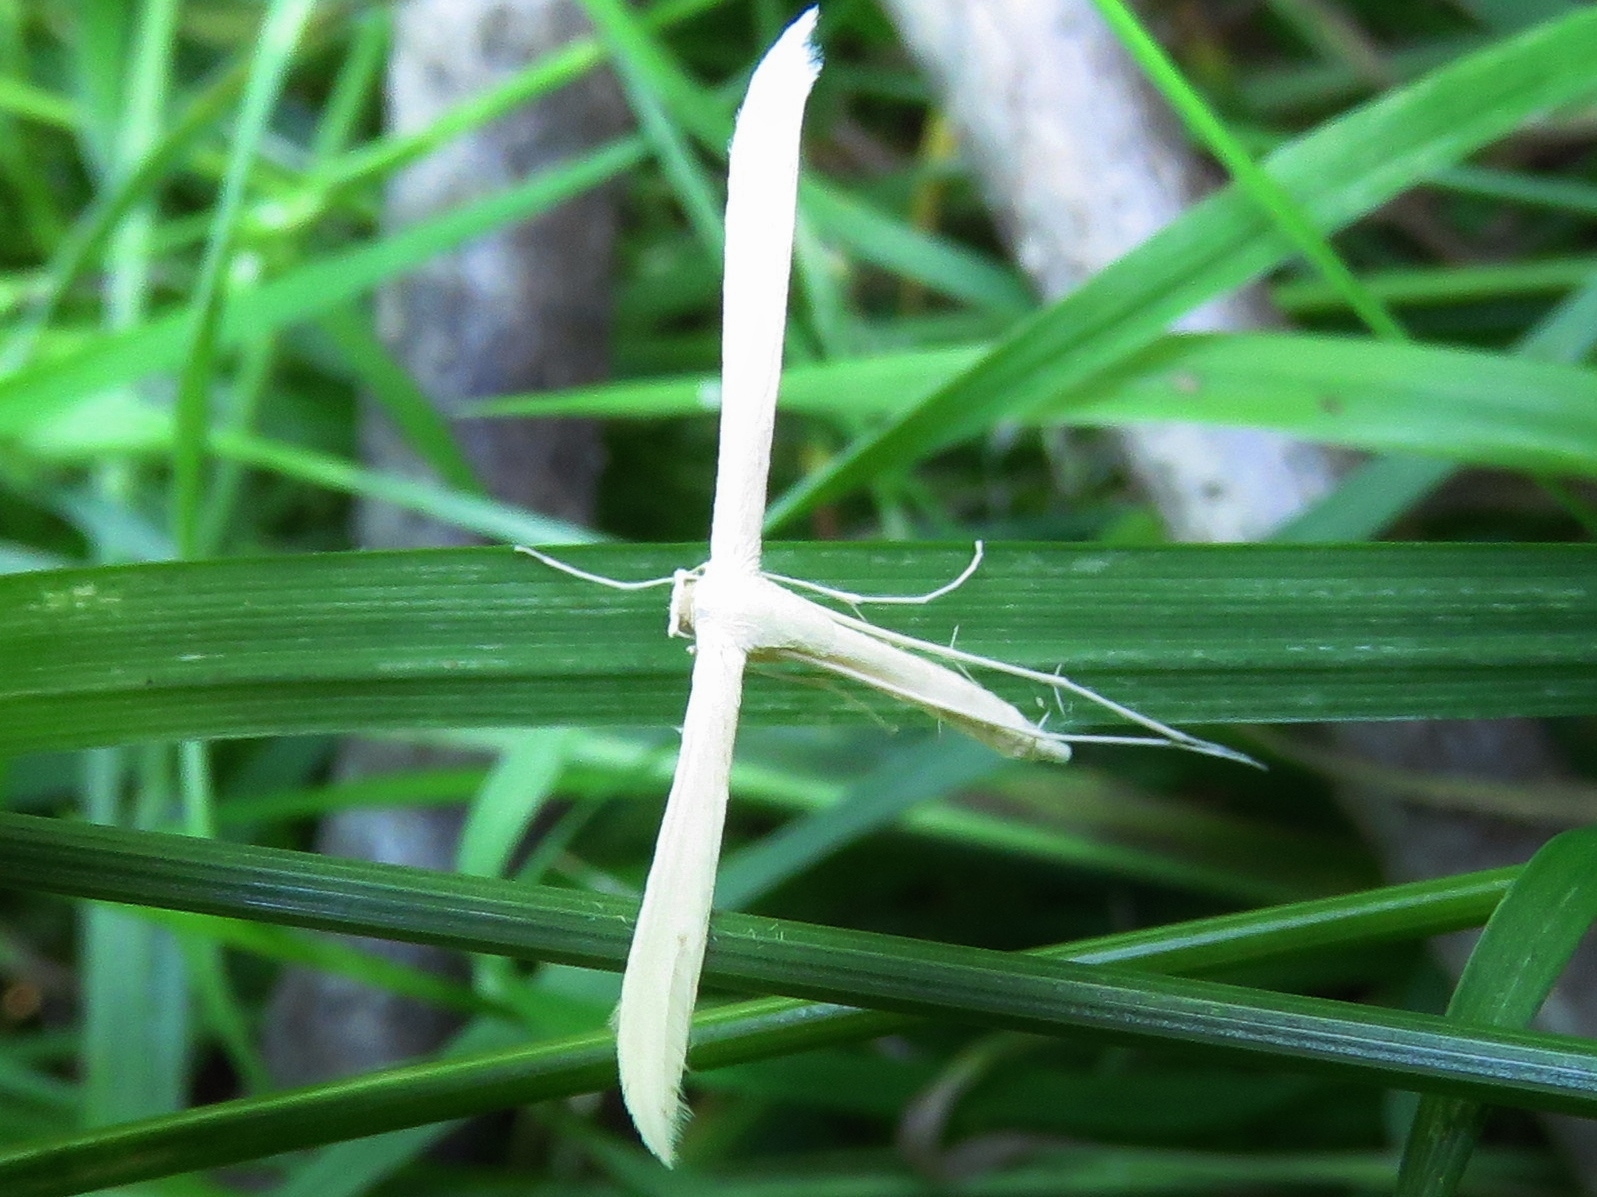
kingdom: Animalia
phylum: Arthropoda
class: Insecta
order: Lepidoptera
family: Pterophoridae
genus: Hellinsia
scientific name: Hellinsia homodactylus
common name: Plain plume moth
